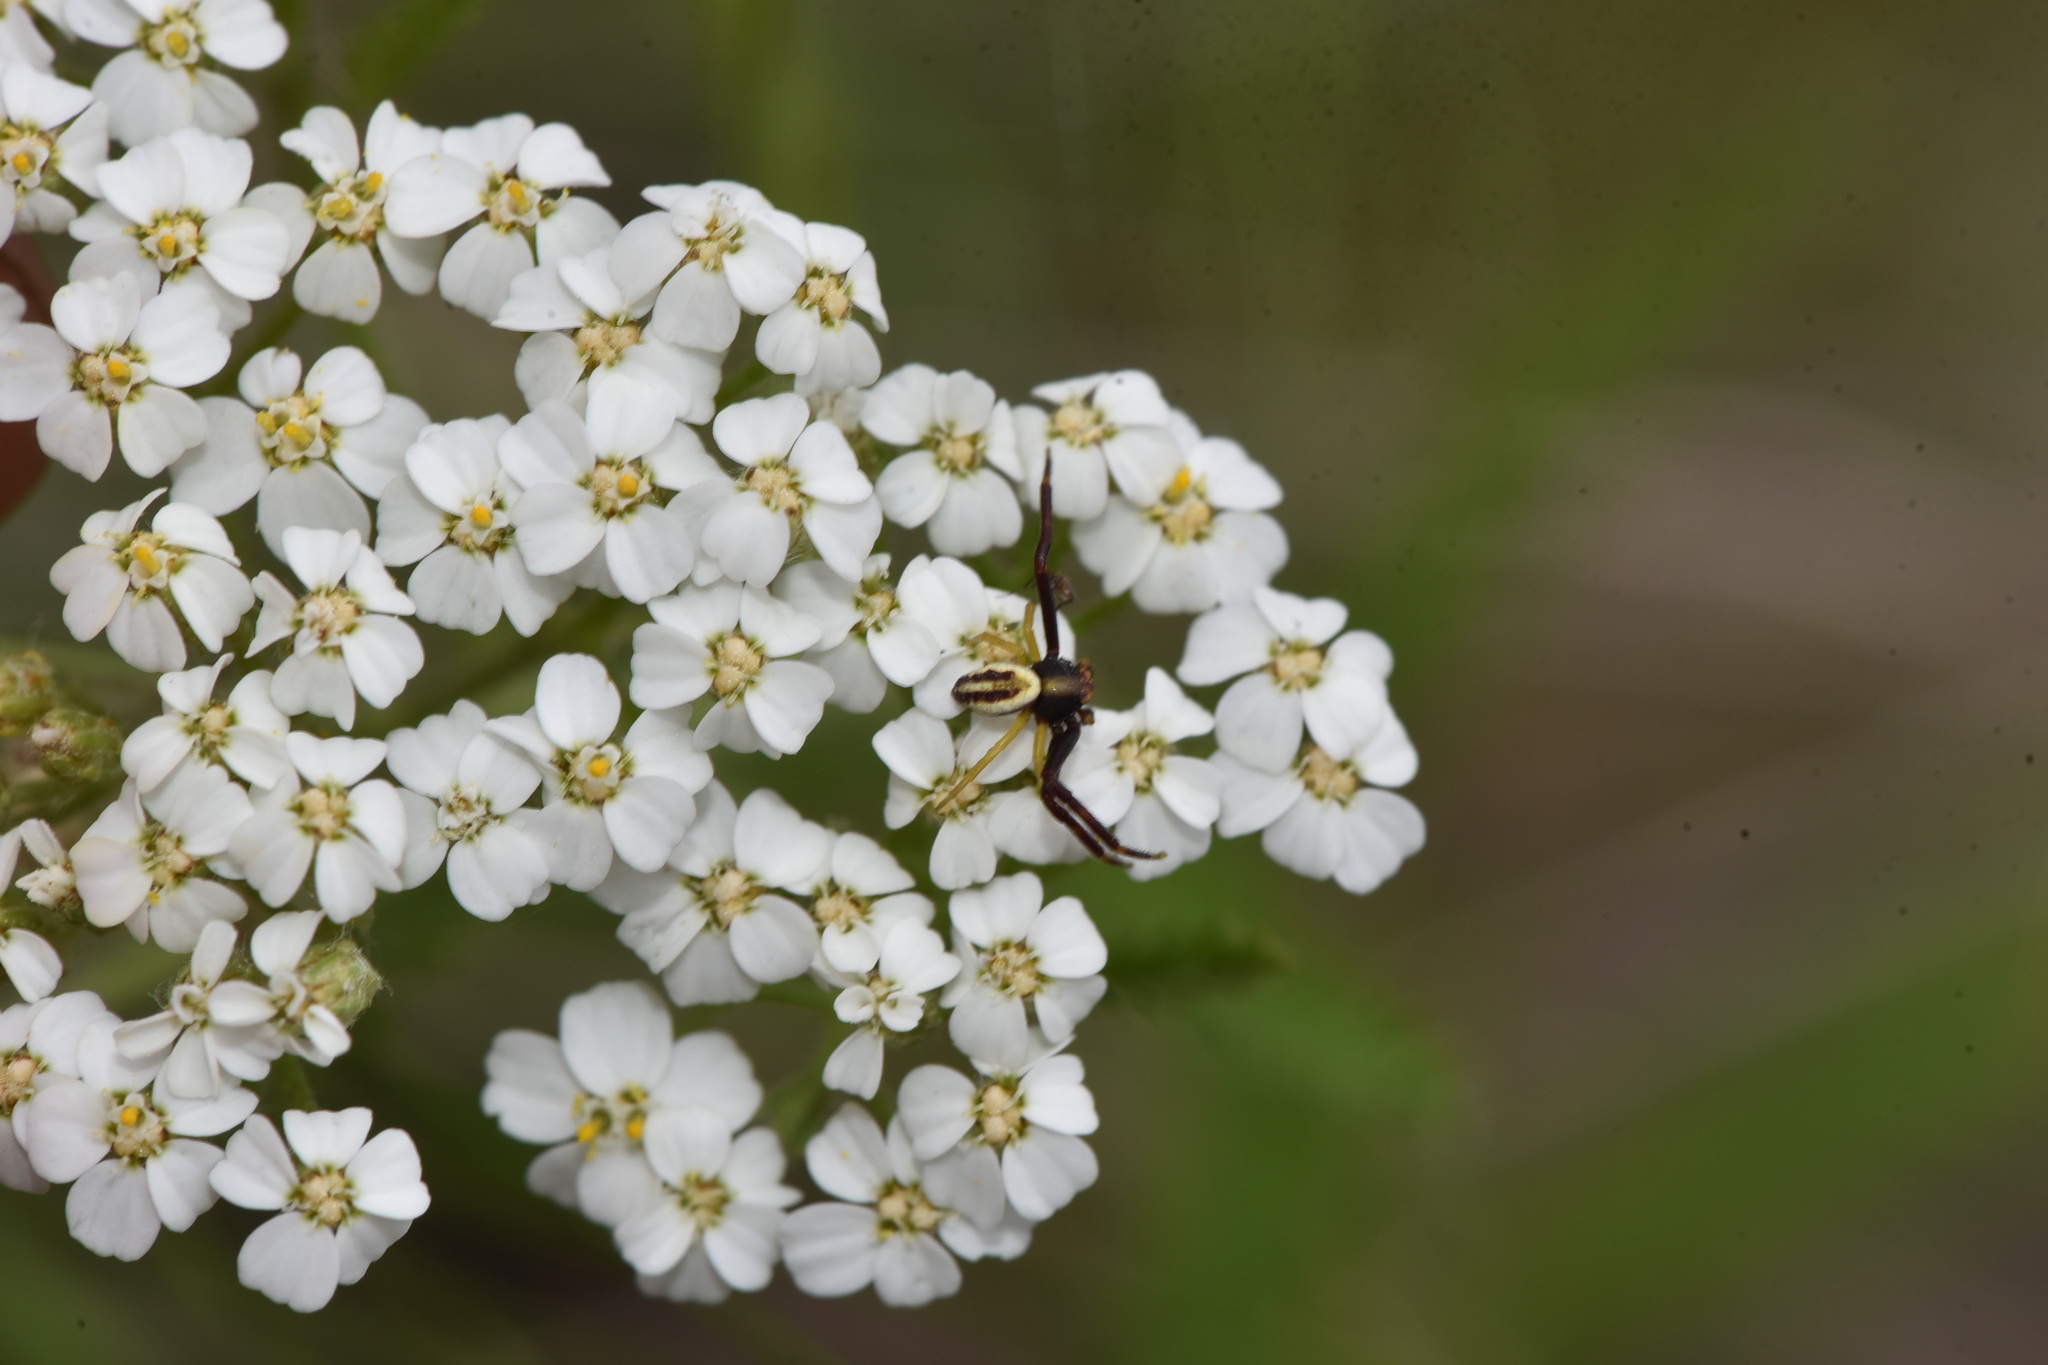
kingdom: Plantae
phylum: Tracheophyta
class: Magnoliopsida
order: Asterales
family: Asteraceae
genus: Achillea
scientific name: Achillea millefolium
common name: Yarrow
